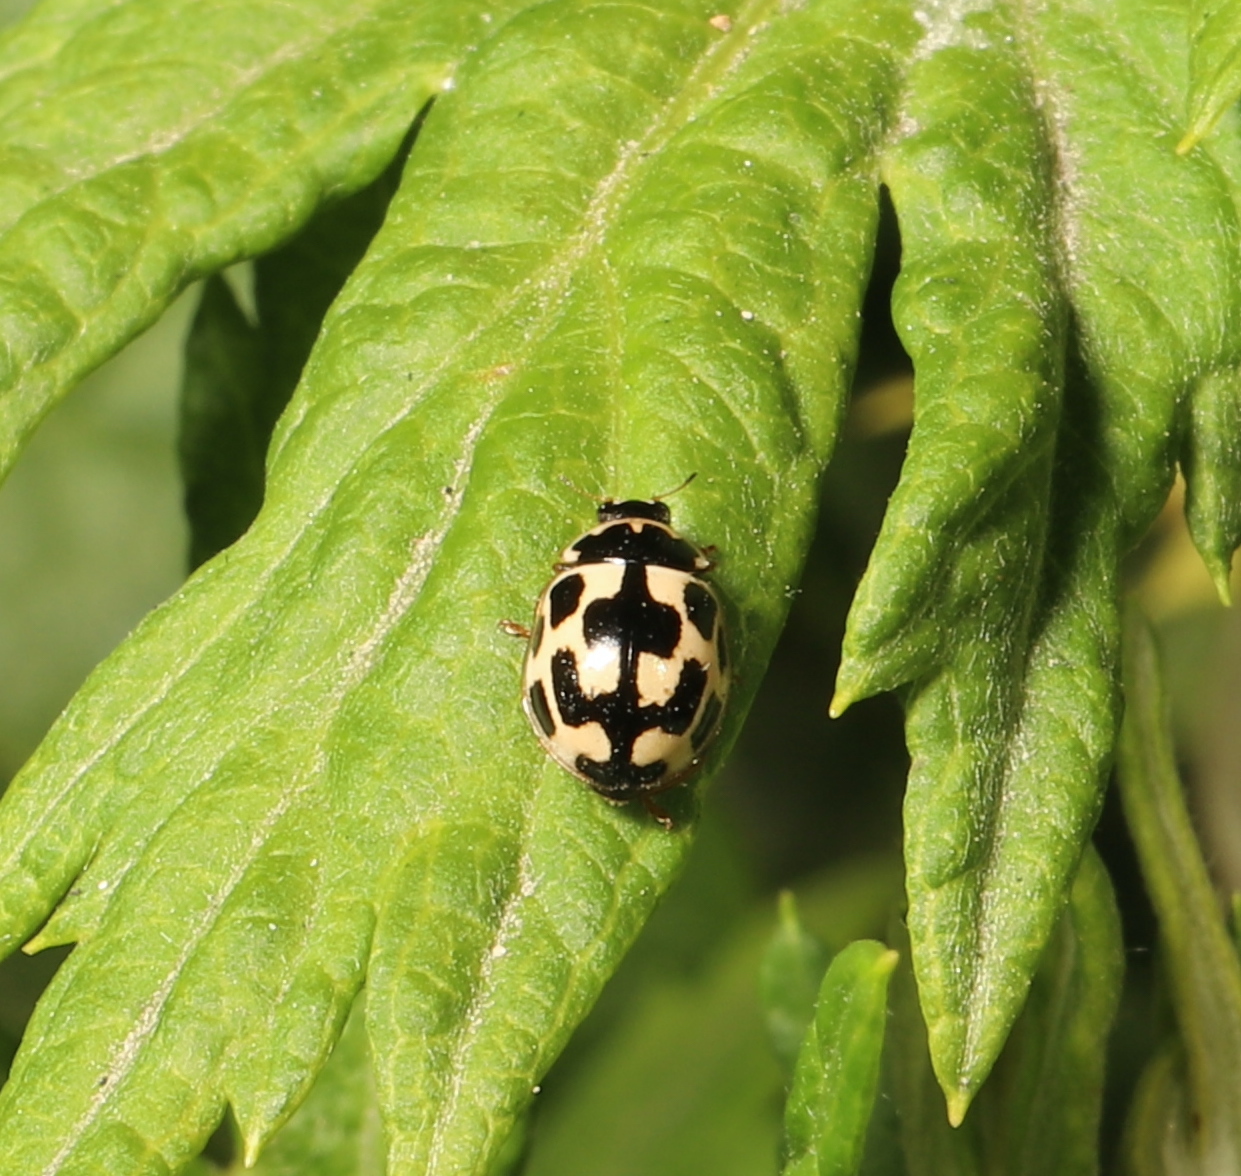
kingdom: Animalia
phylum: Arthropoda
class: Insecta
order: Coleoptera
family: Coccinellidae
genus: Propylaea
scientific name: Propylaea quatuordecimpunctata
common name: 14-spotted ladybird beetle
